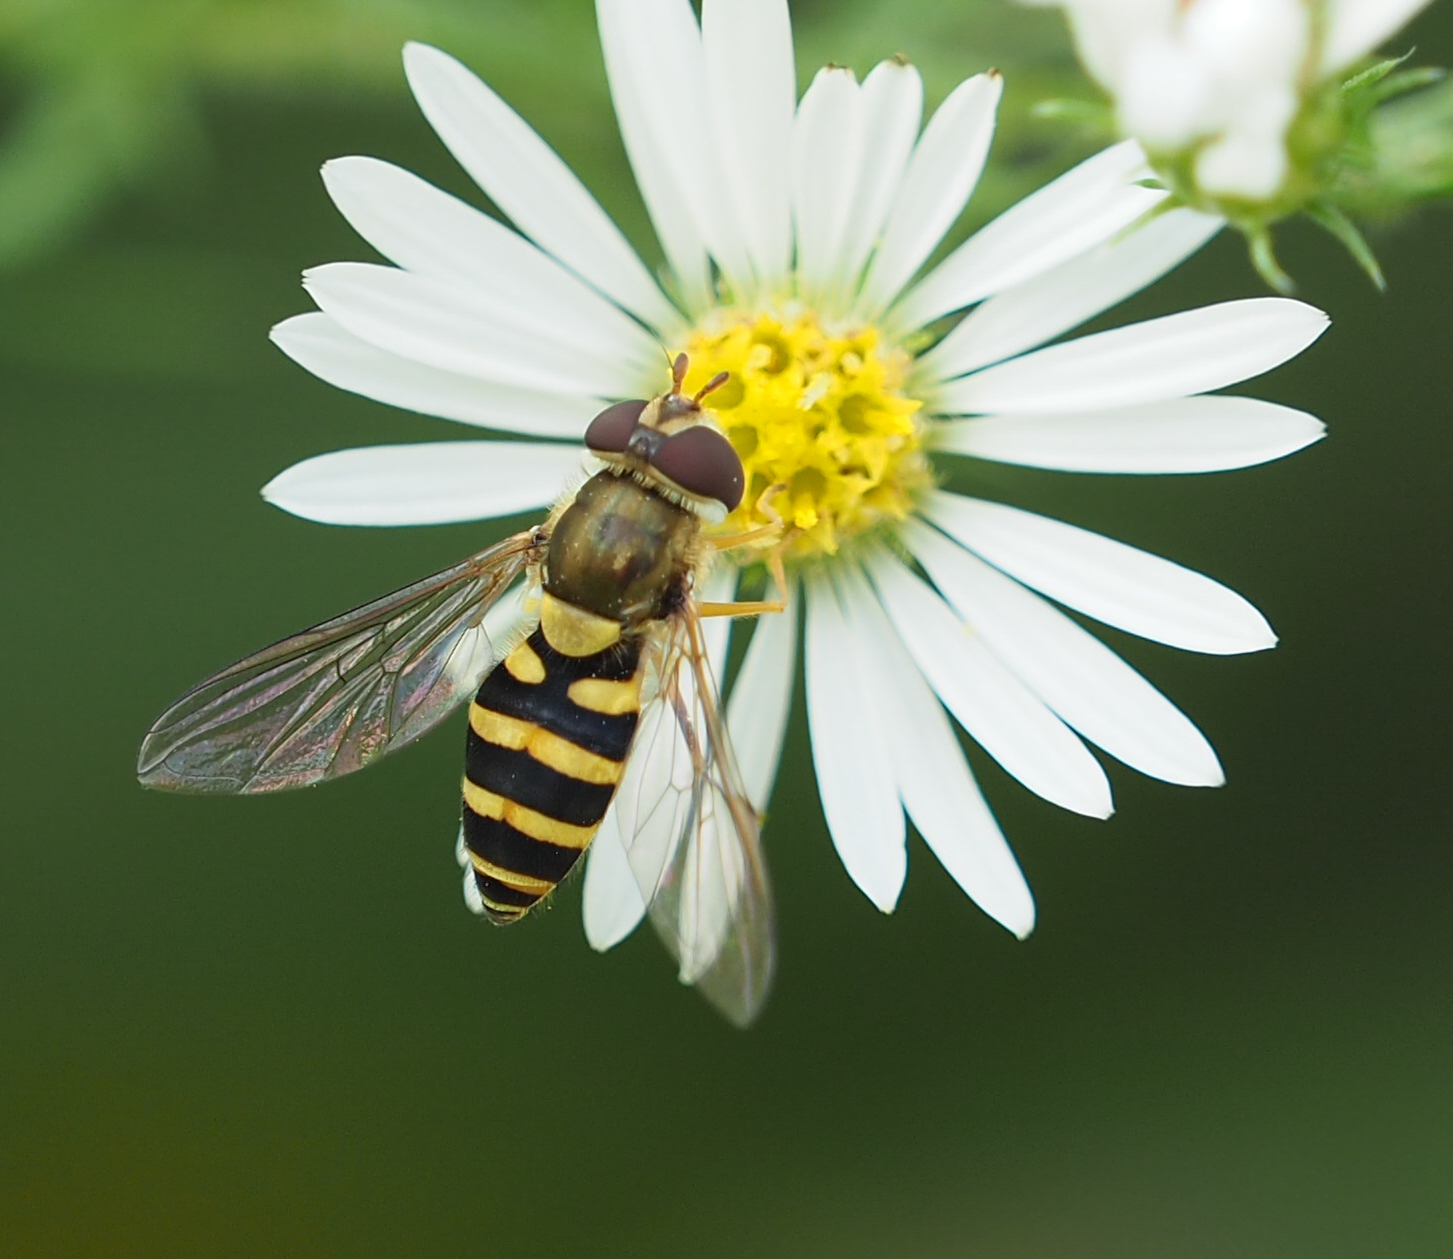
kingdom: Animalia
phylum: Arthropoda
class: Insecta
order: Diptera
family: Syrphidae
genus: Syrphus
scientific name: Syrphus
